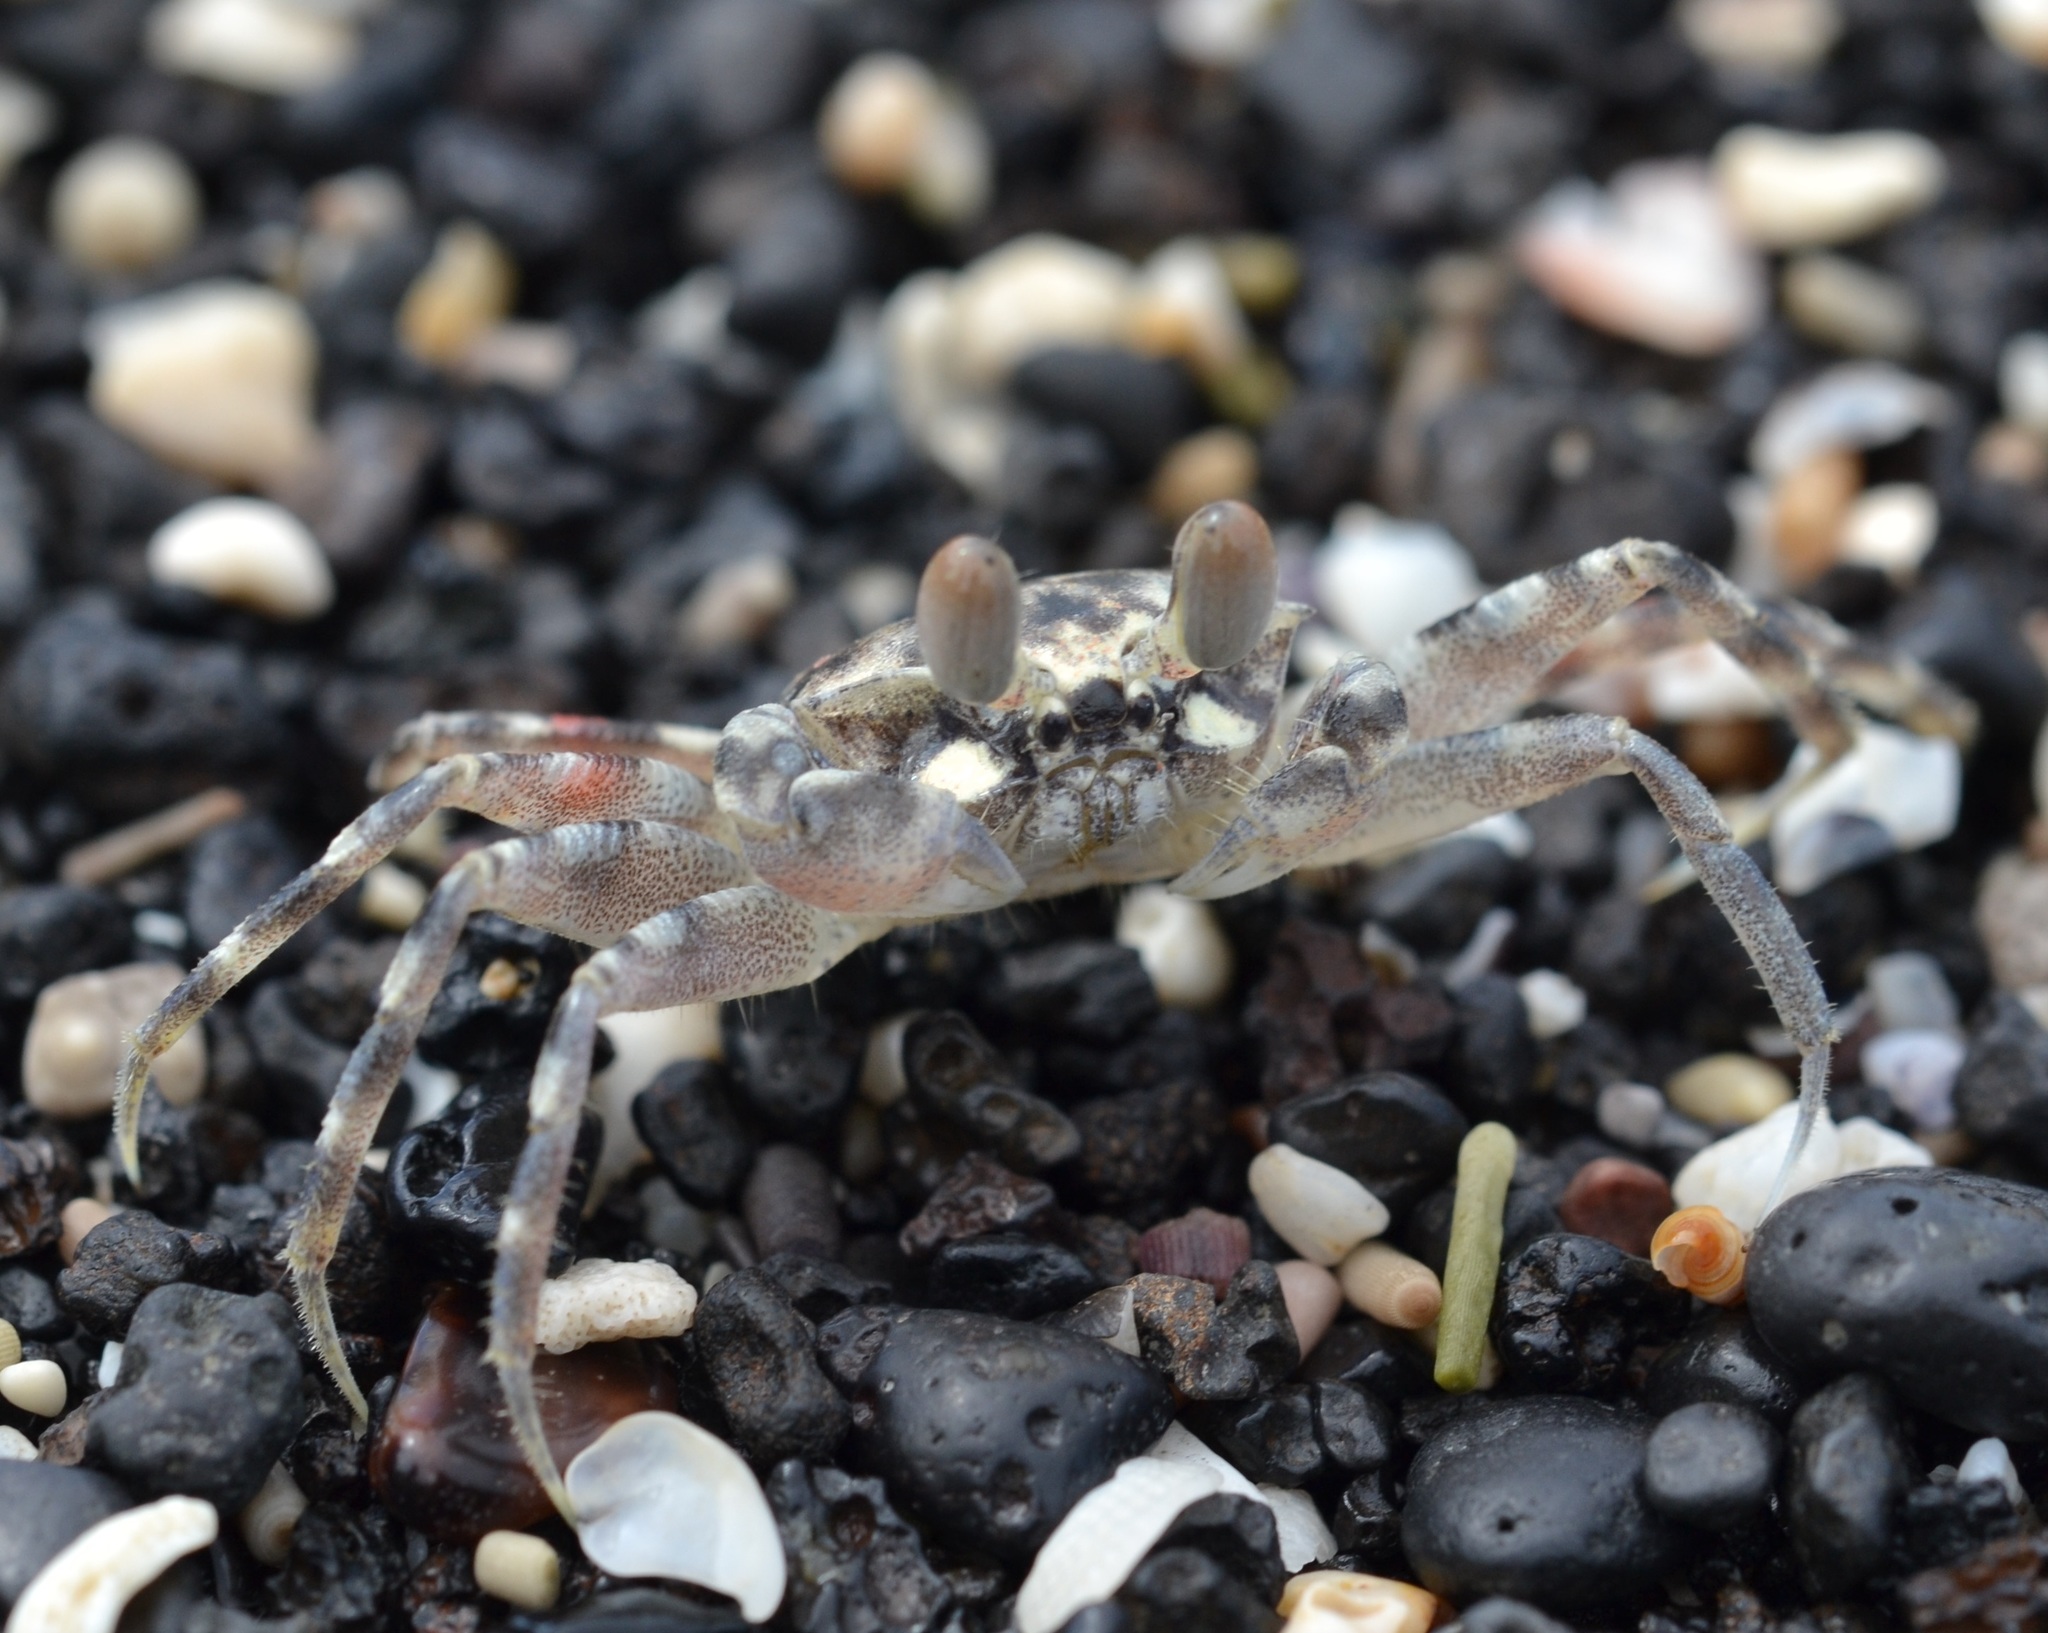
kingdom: Animalia
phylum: Arthropoda
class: Malacostraca
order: Decapoda
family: Ocypodidae
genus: Ocypode
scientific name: Ocypode pallidula
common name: Pallid ghost crab
